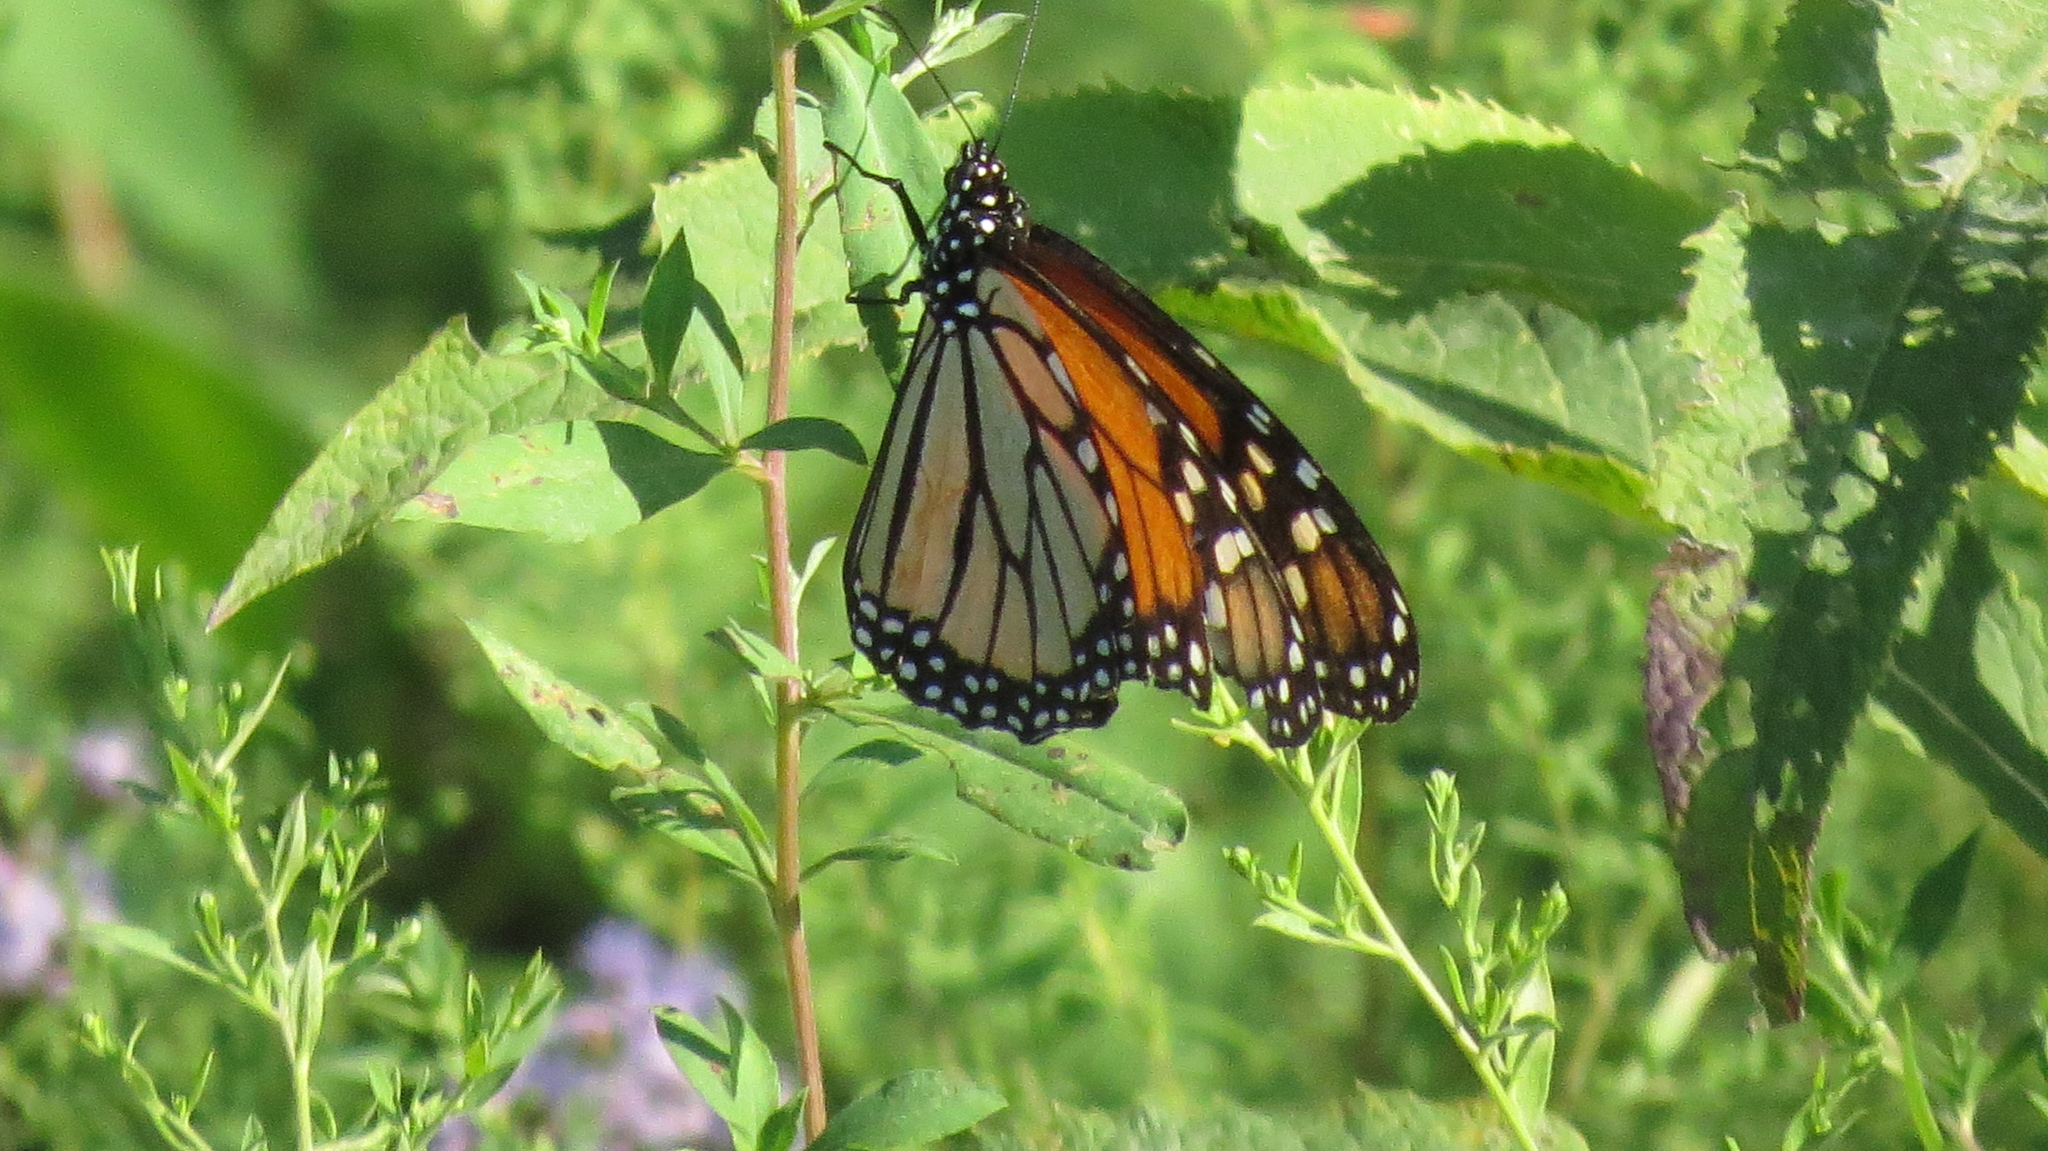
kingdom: Animalia
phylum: Arthropoda
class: Insecta
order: Lepidoptera
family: Nymphalidae
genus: Danaus
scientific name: Danaus plexippus
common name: Monarch
